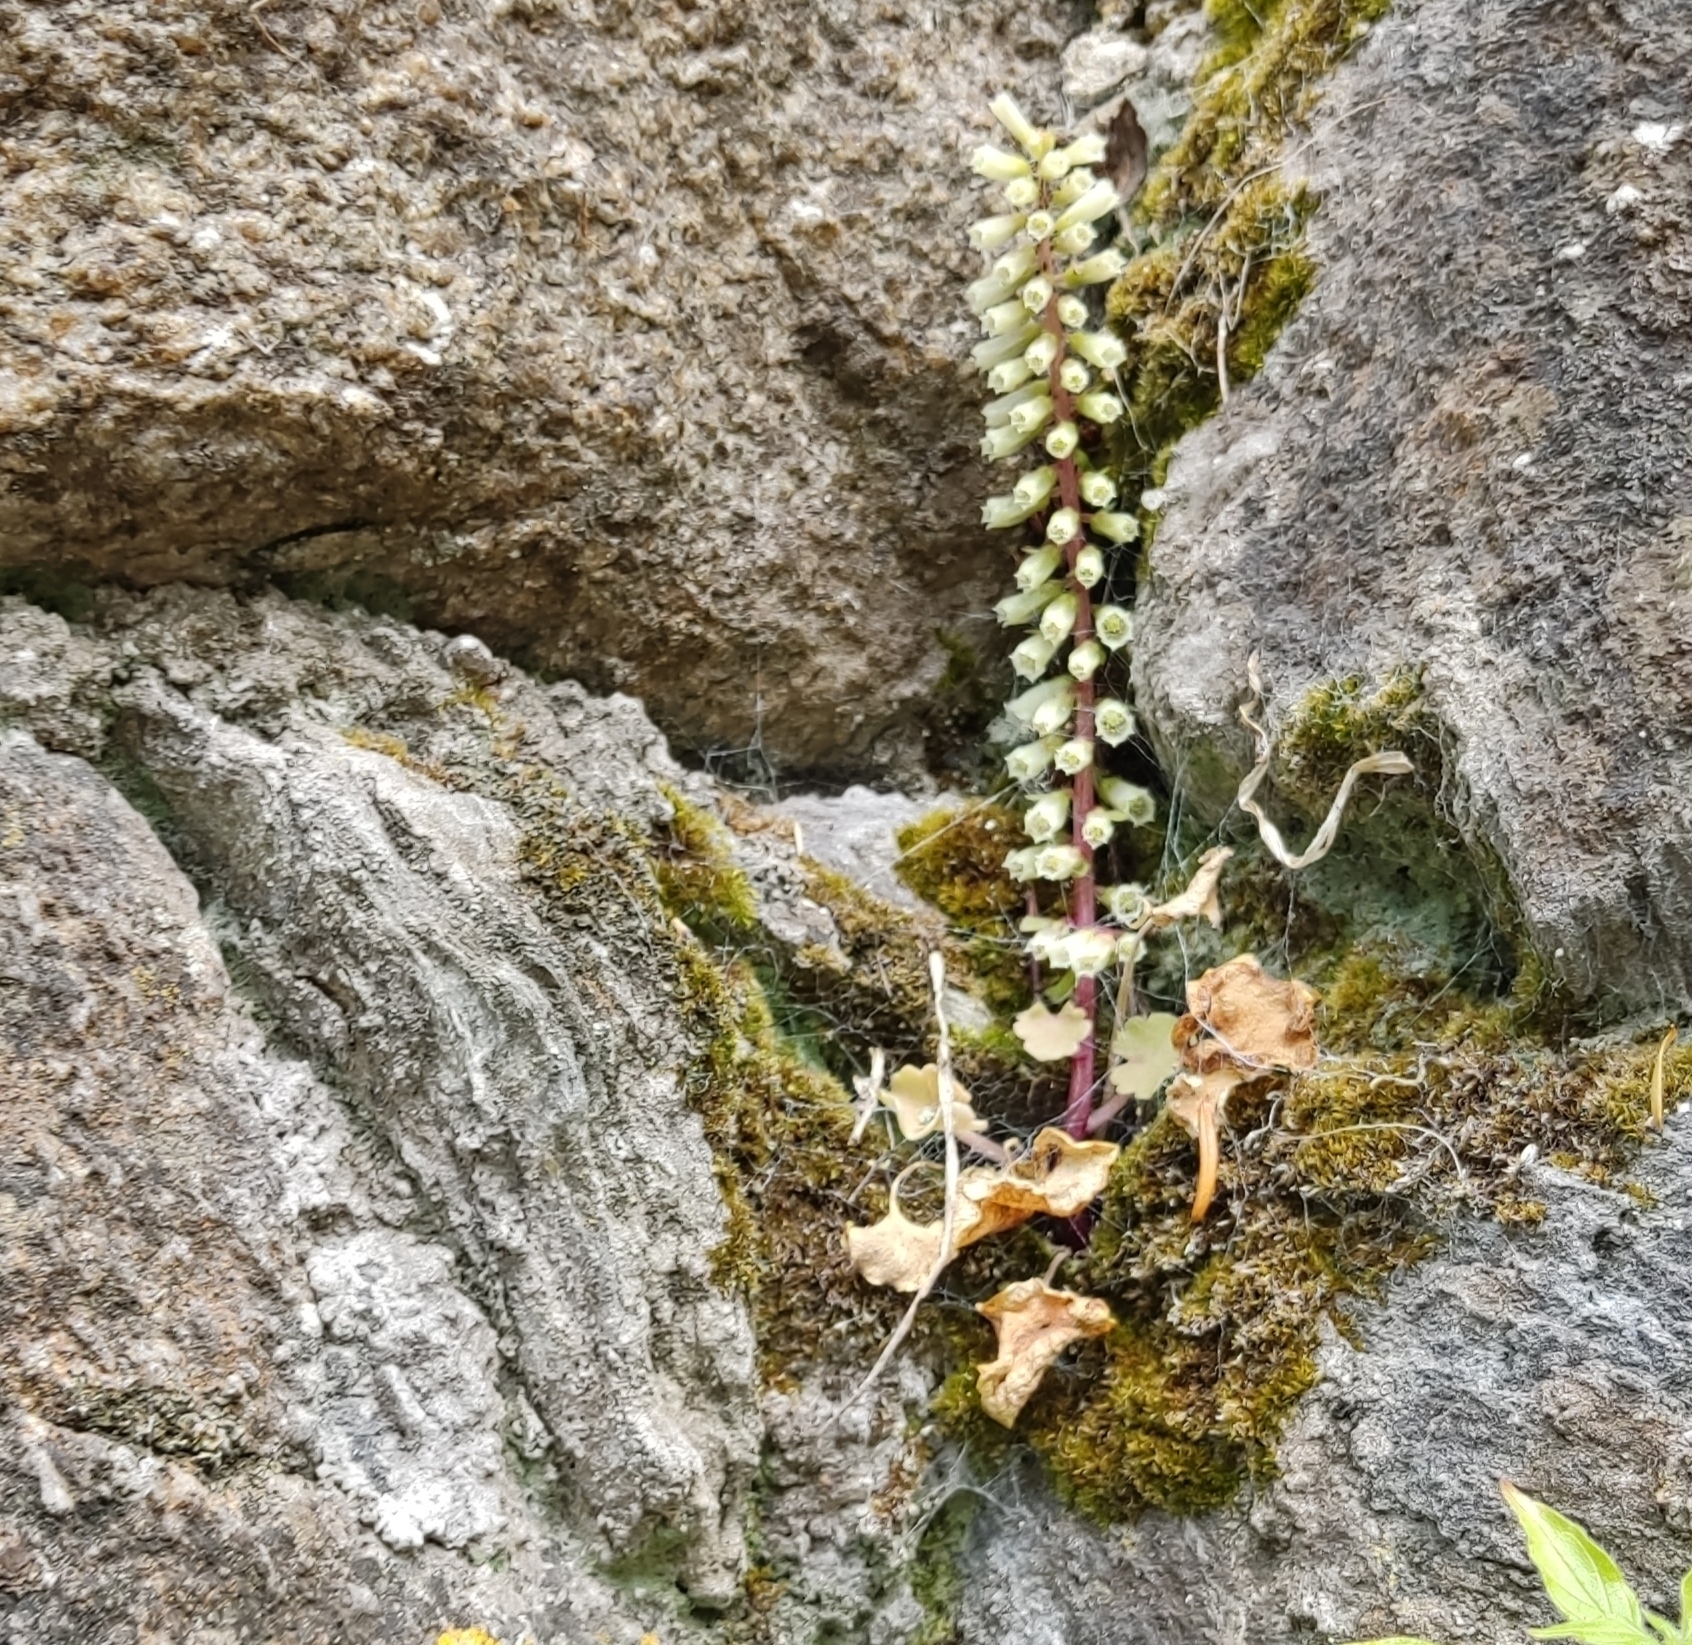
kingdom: Plantae
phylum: Tracheophyta
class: Magnoliopsida
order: Saxifragales
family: Crassulaceae
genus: Umbilicus
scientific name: Umbilicus rupestris
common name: Navelwort
